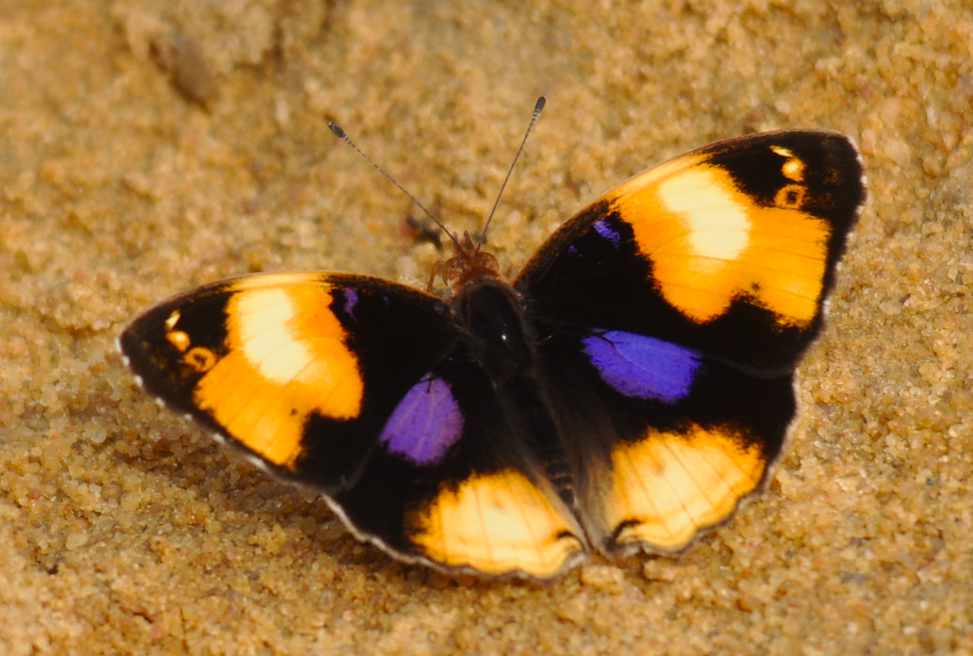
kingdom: Animalia
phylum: Arthropoda
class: Insecta
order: Lepidoptera
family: Nymphalidae
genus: Junonia
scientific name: Junonia hierta
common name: Yellow pansy
